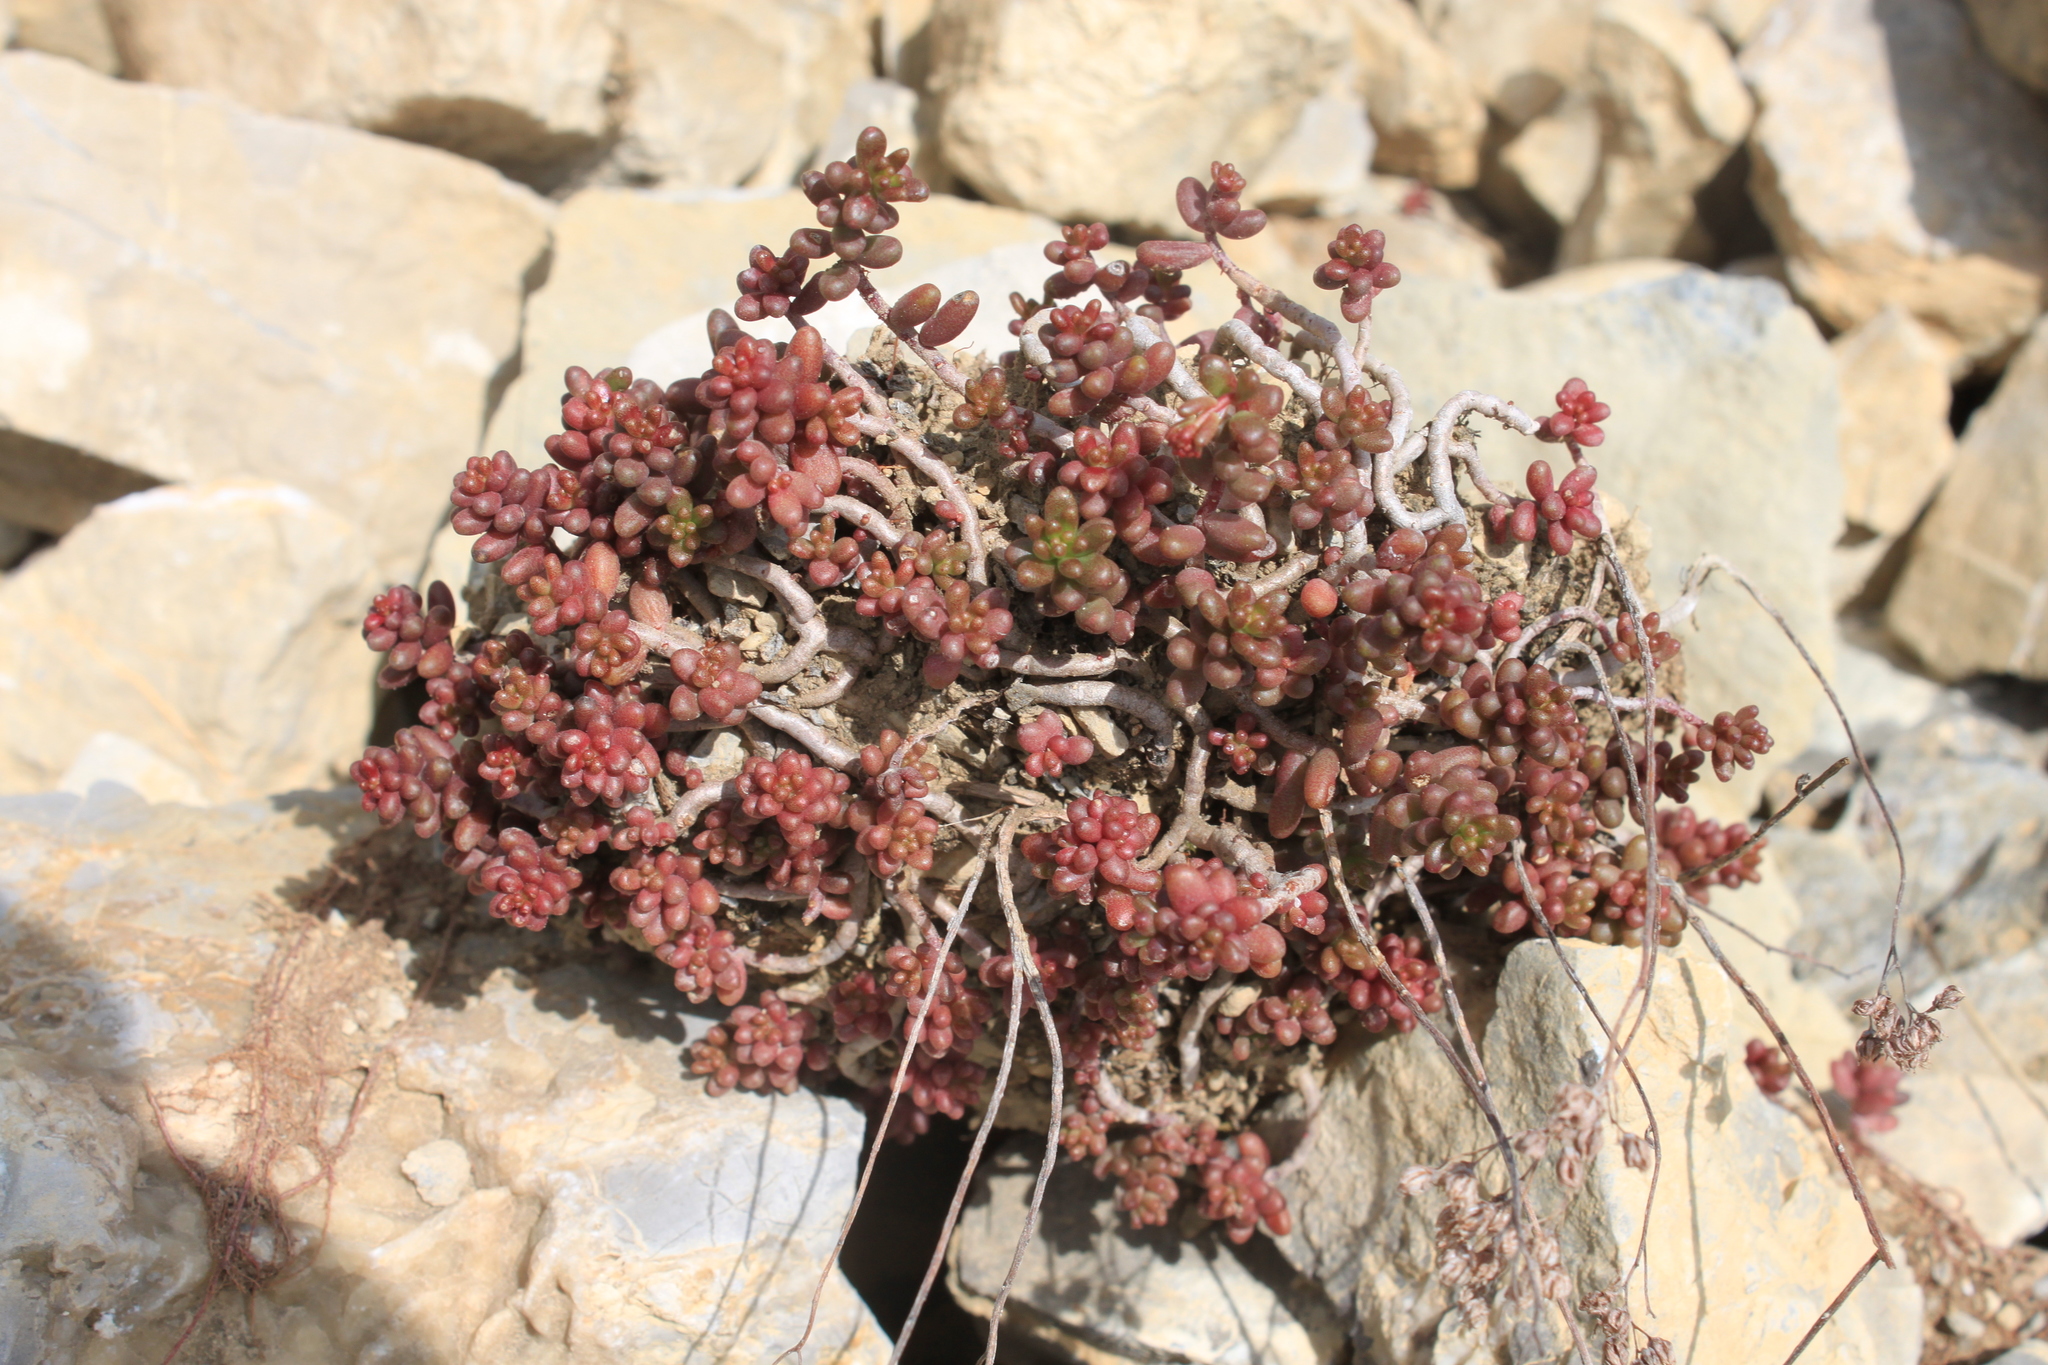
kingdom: Plantae
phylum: Tracheophyta
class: Magnoliopsida
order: Saxifragales
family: Crassulaceae
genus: Sedum
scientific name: Sedum album
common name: White stonecrop
